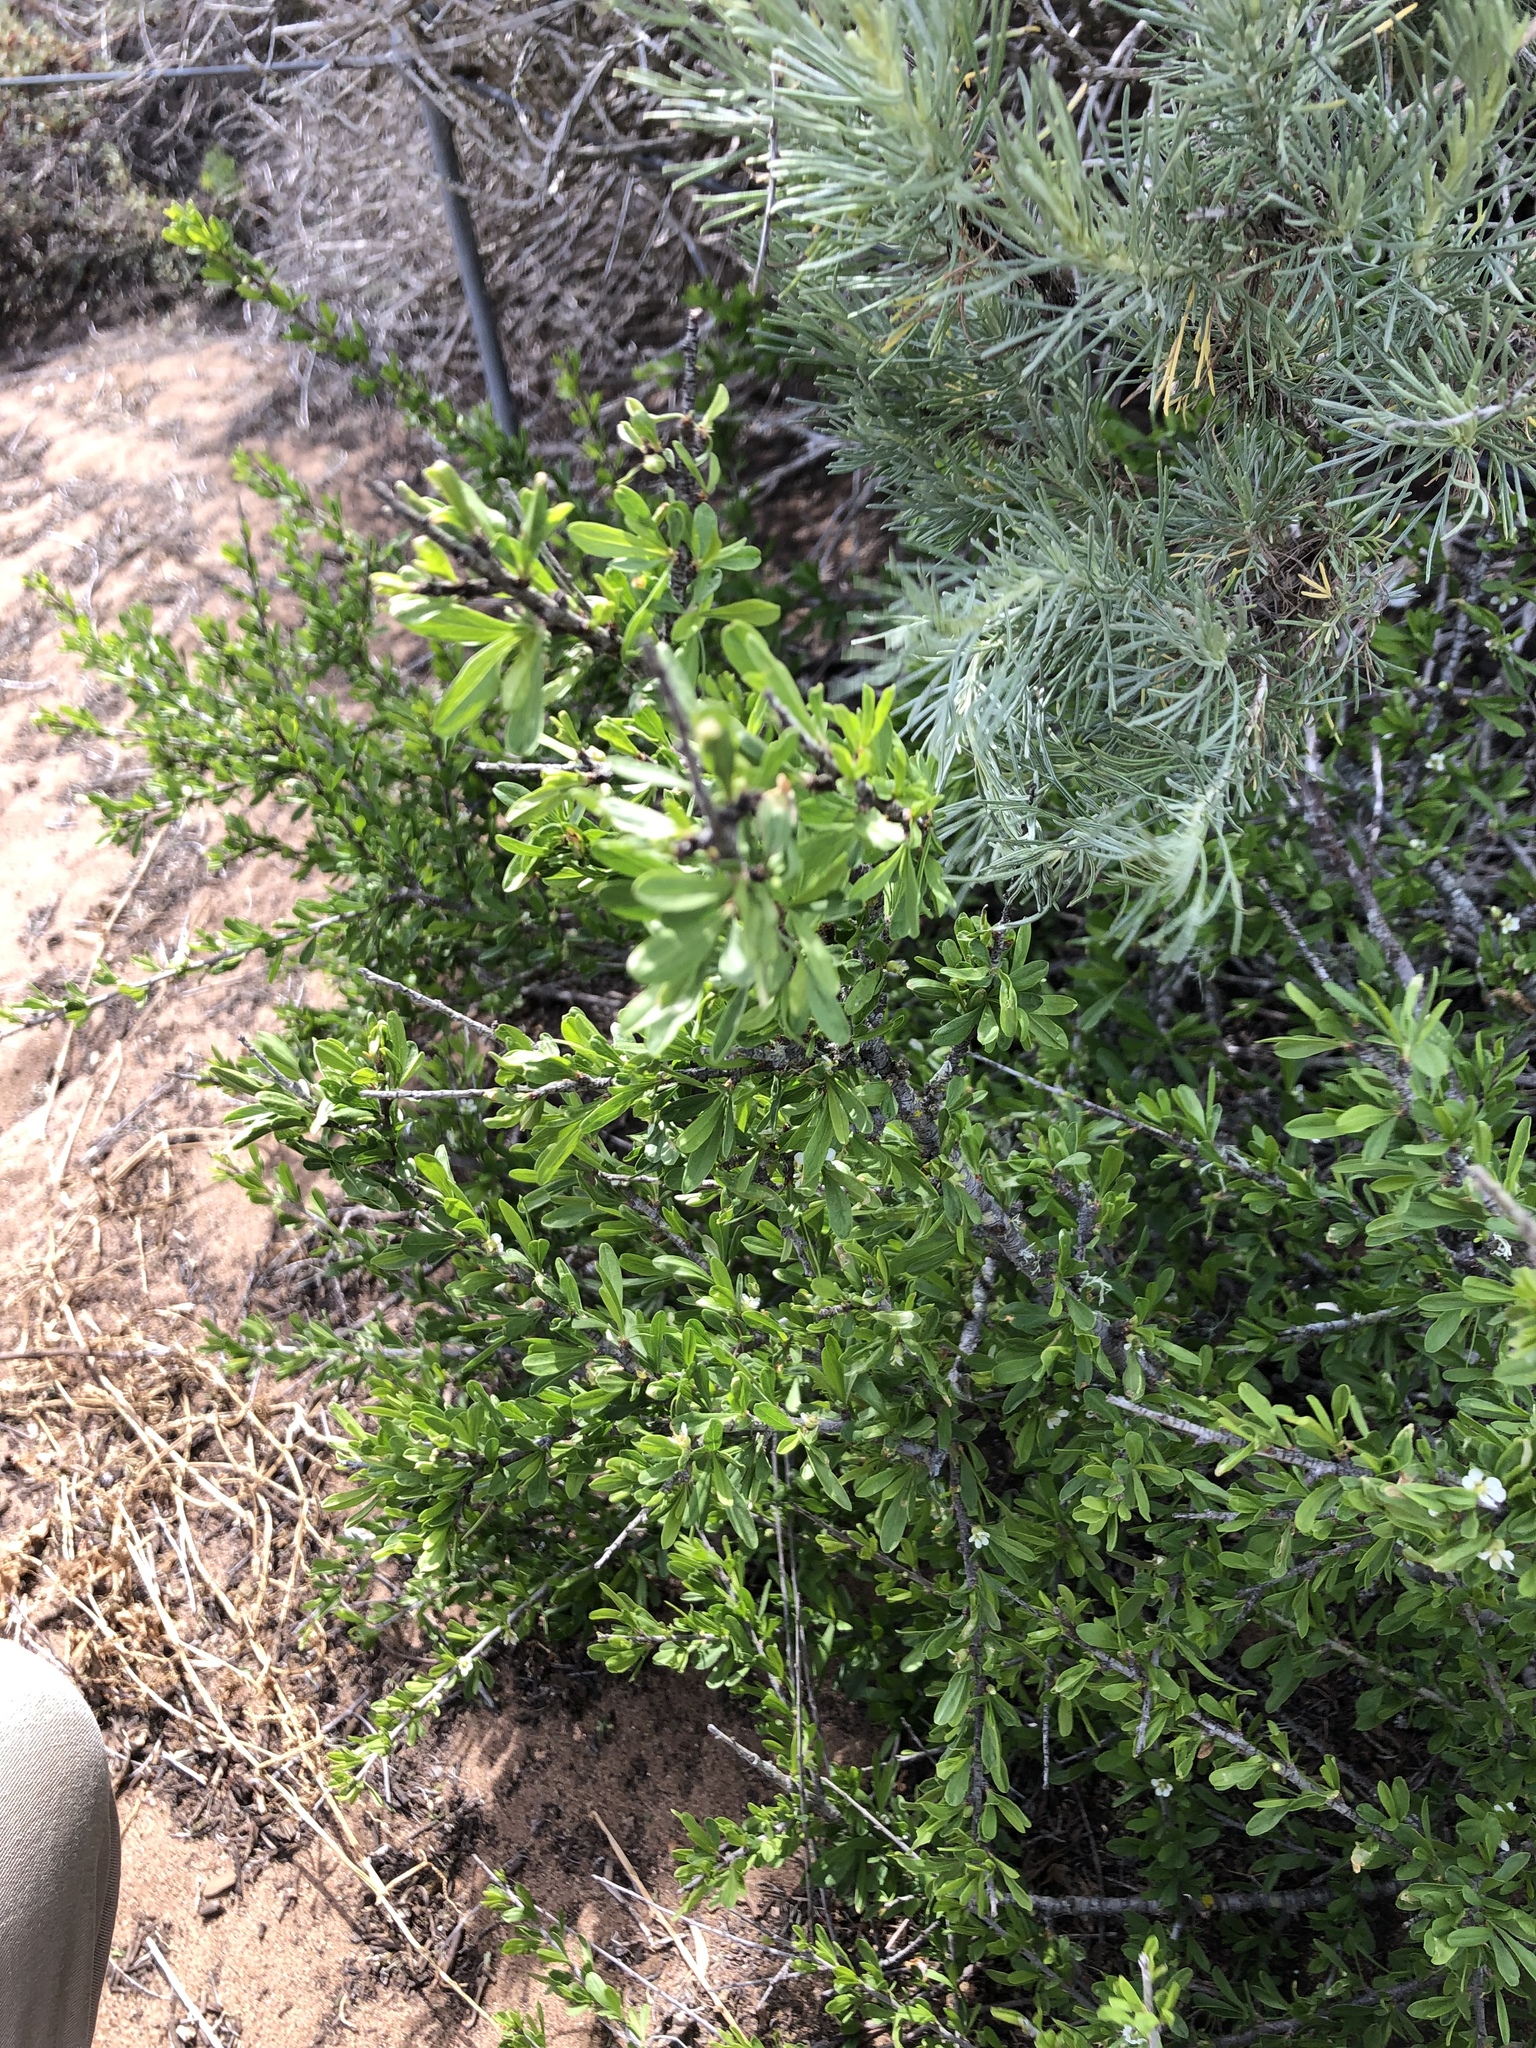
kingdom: Plantae
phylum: Tracheophyta
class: Magnoliopsida
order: Rosales
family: Rosaceae
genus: Prunus
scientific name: Prunus fasciculata
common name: Desert almond
